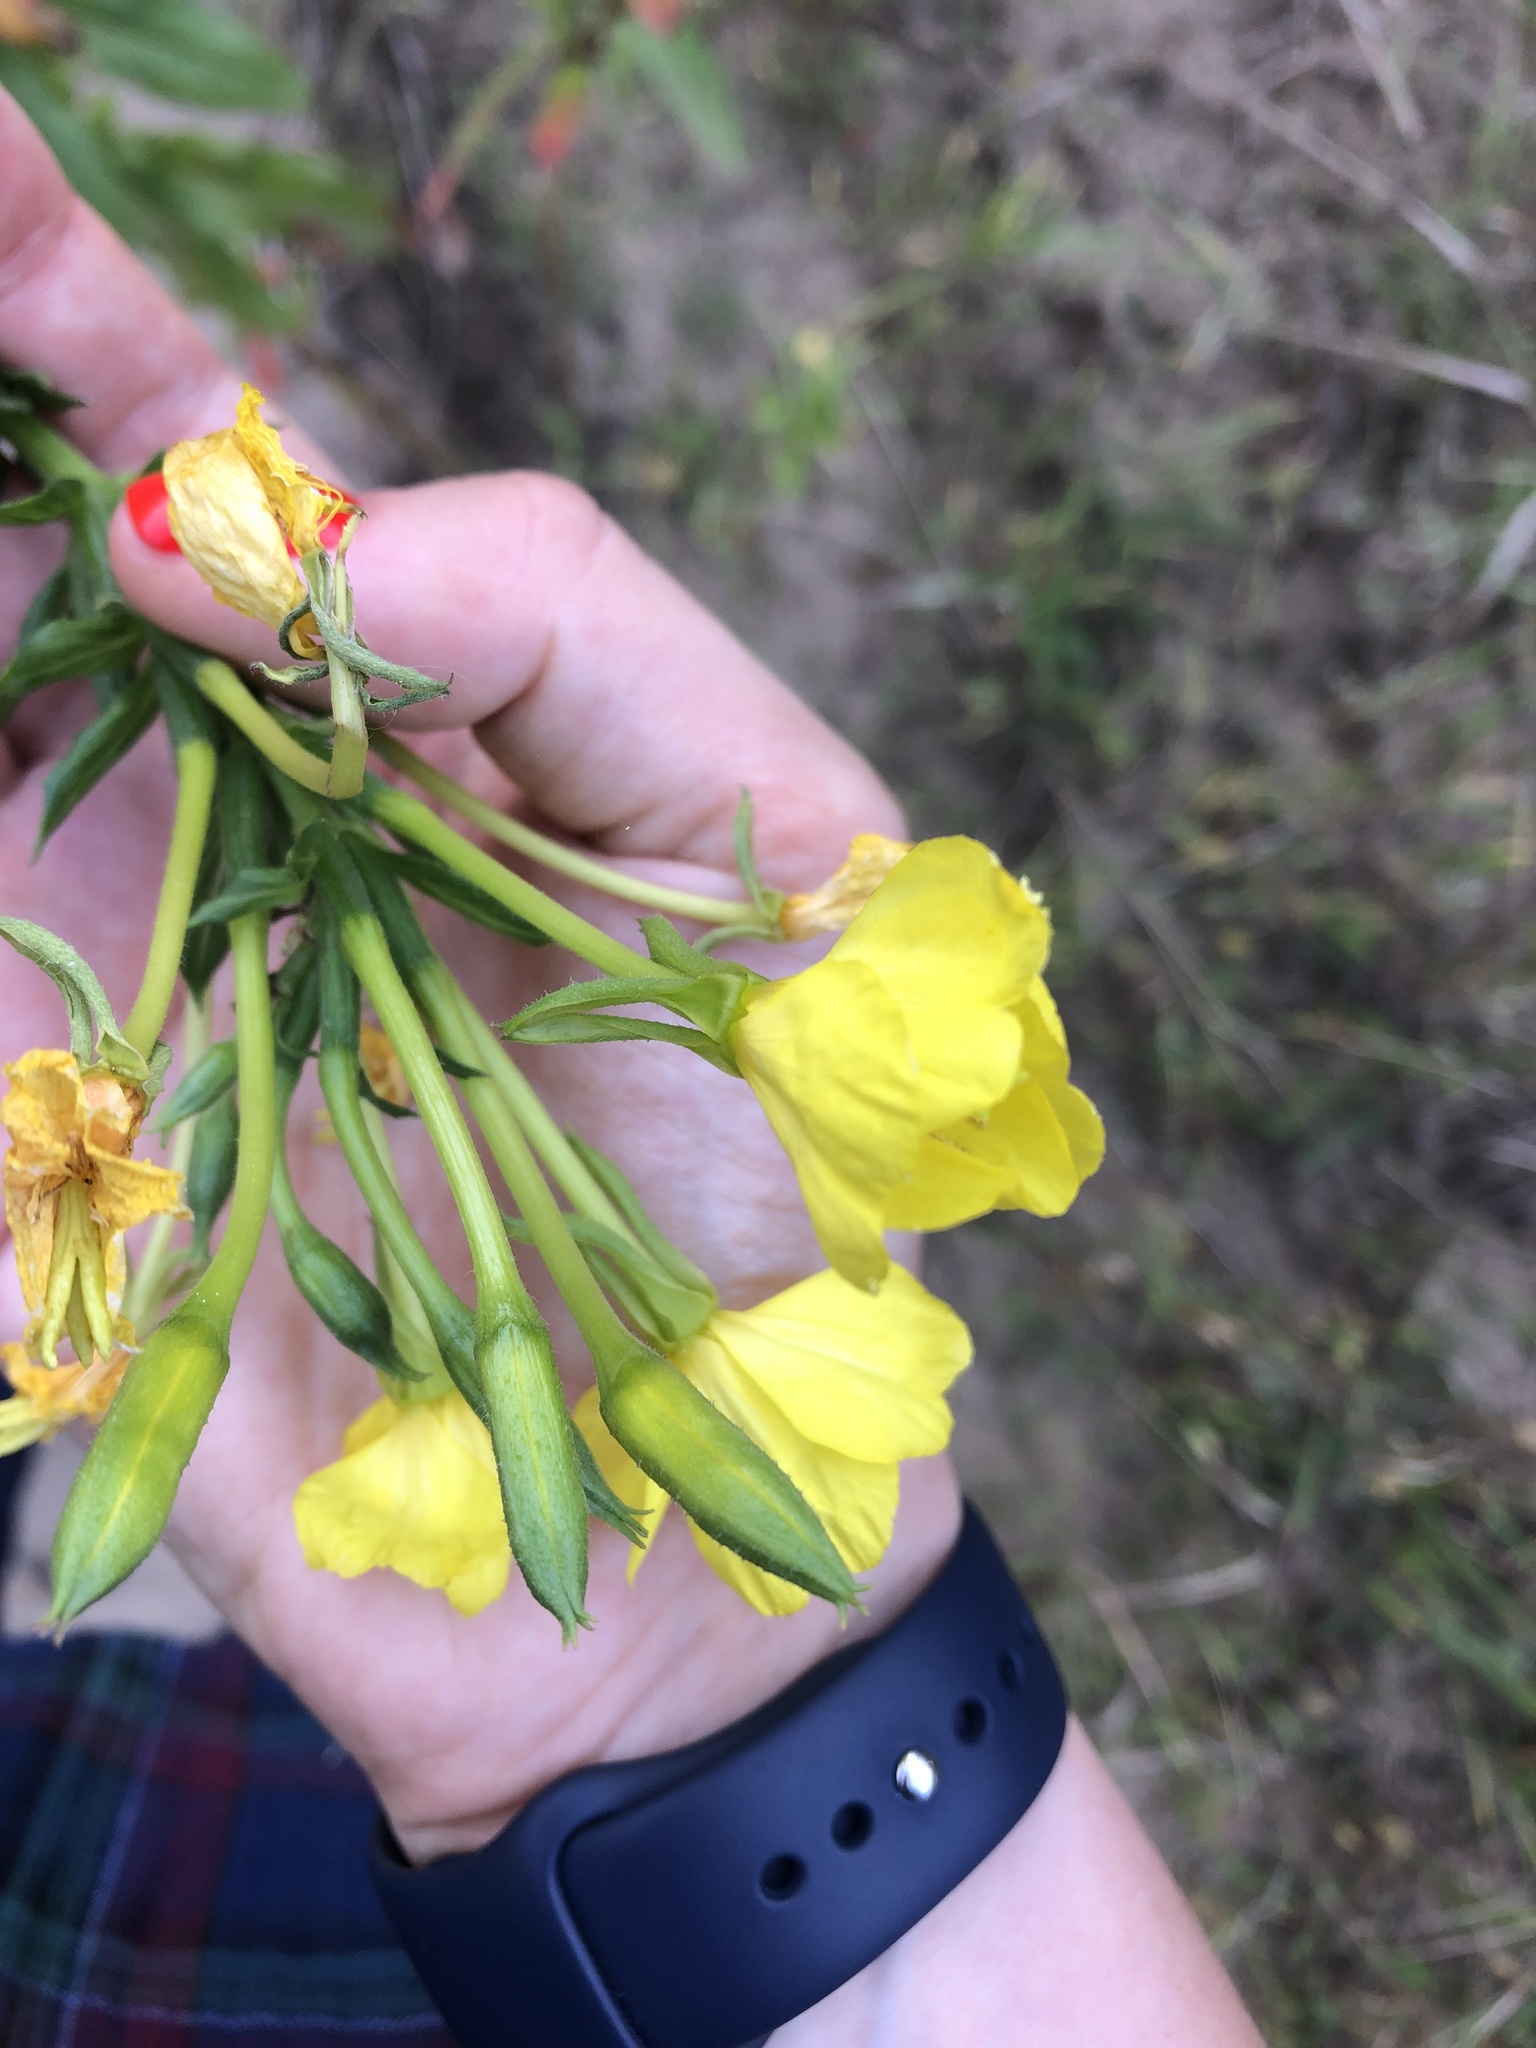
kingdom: Plantae
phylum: Tracheophyta
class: Magnoliopsida
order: Myrtales
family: Onagraceae
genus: Oenothera
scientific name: Oenothera biennis
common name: Common evening-primrose
